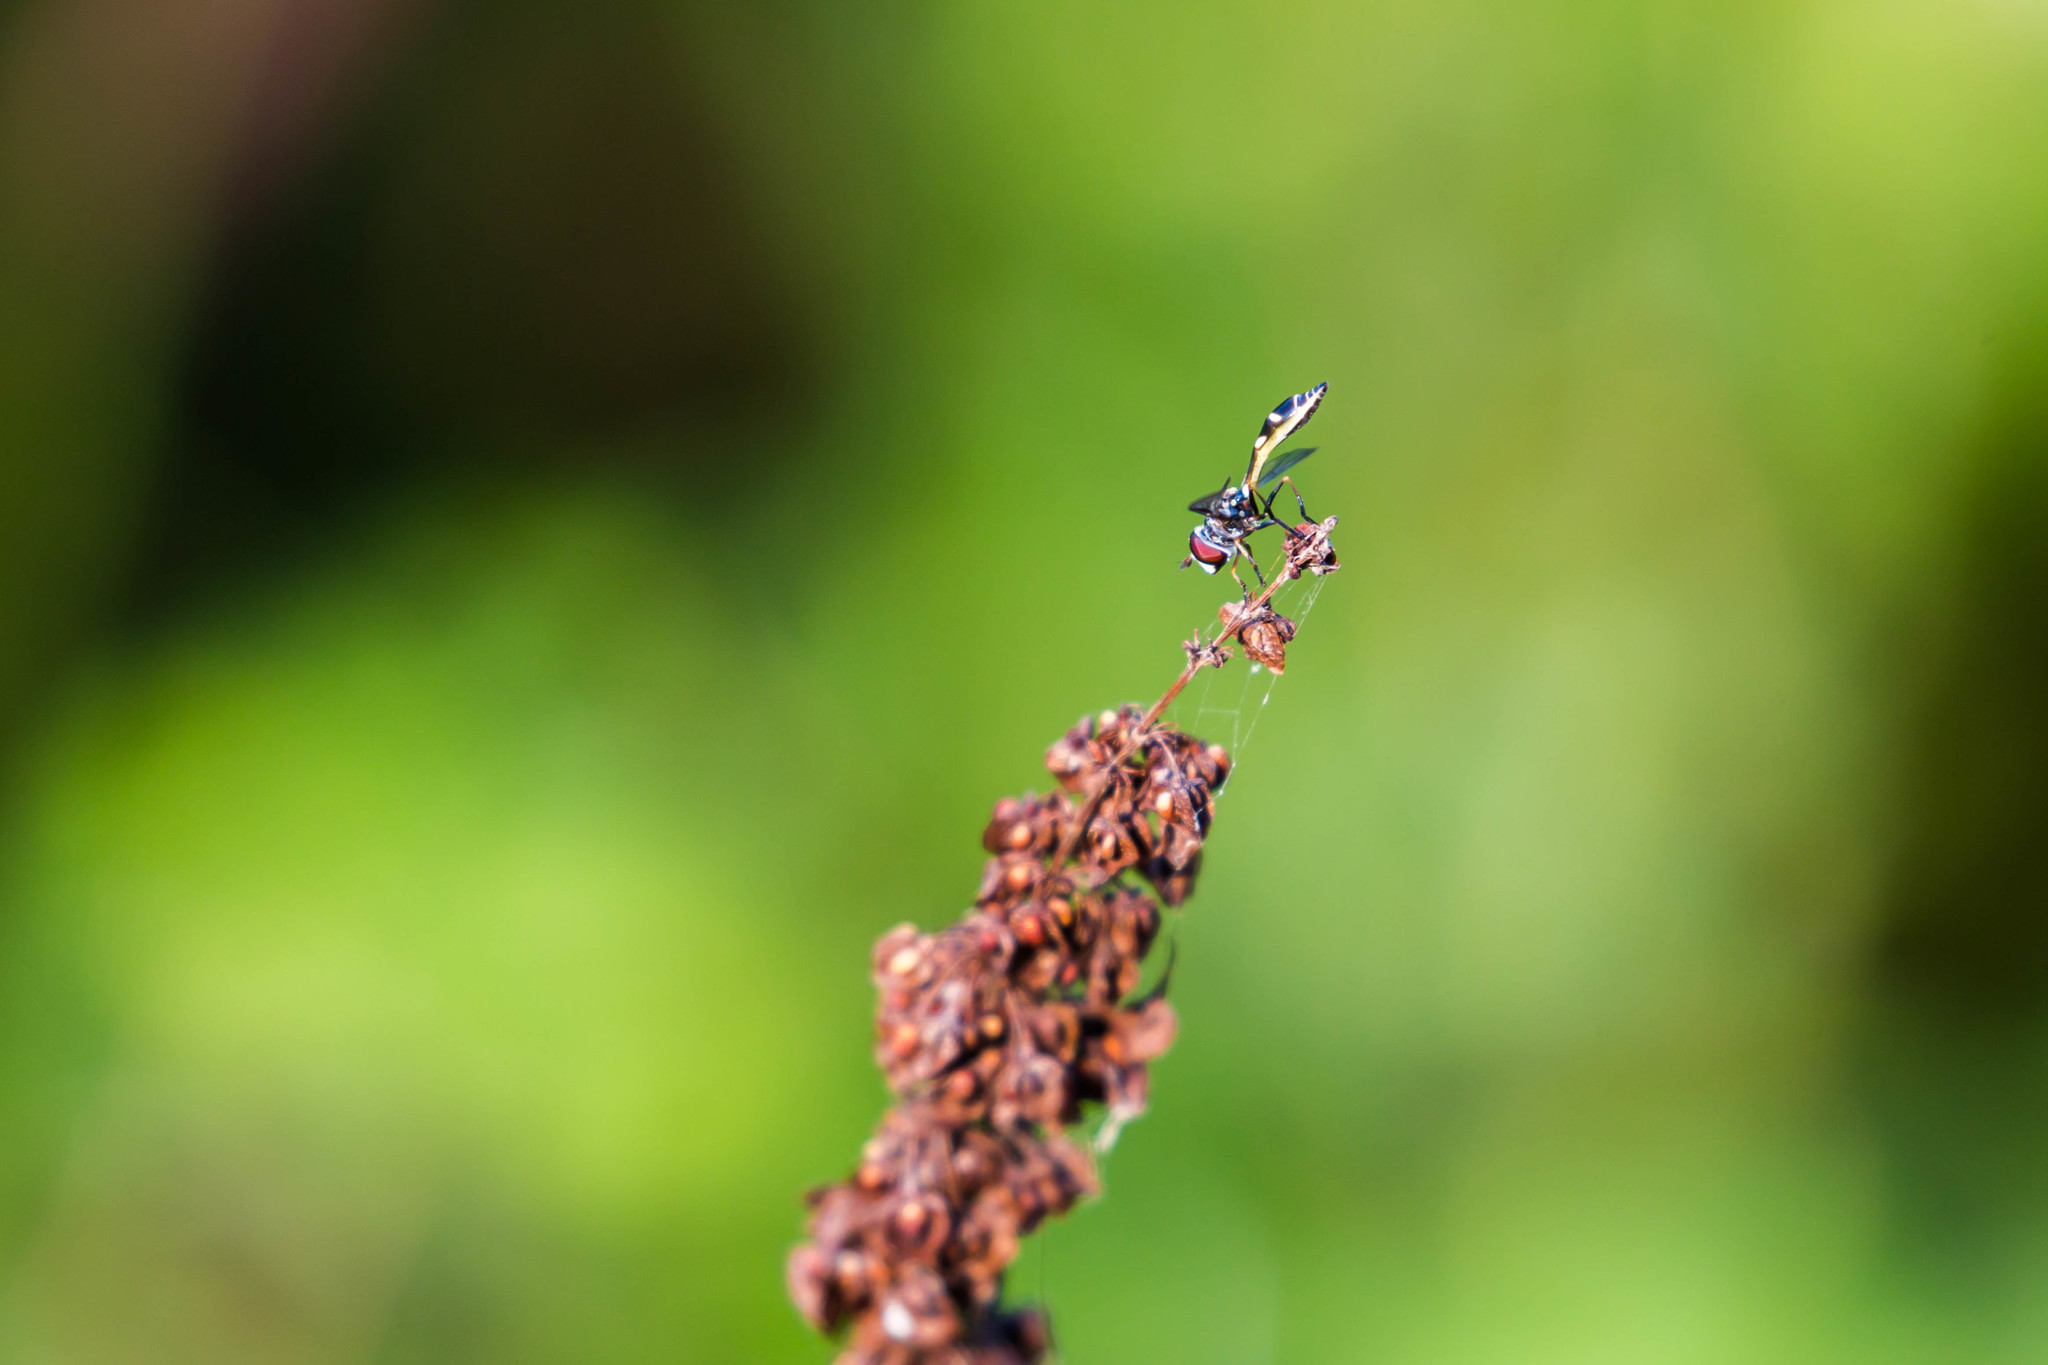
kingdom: Animalia
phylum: Arthropoda
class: Insecta
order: Diptera
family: Syrphidae
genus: Dioprosopa
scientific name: Dioprosopa clavatus
